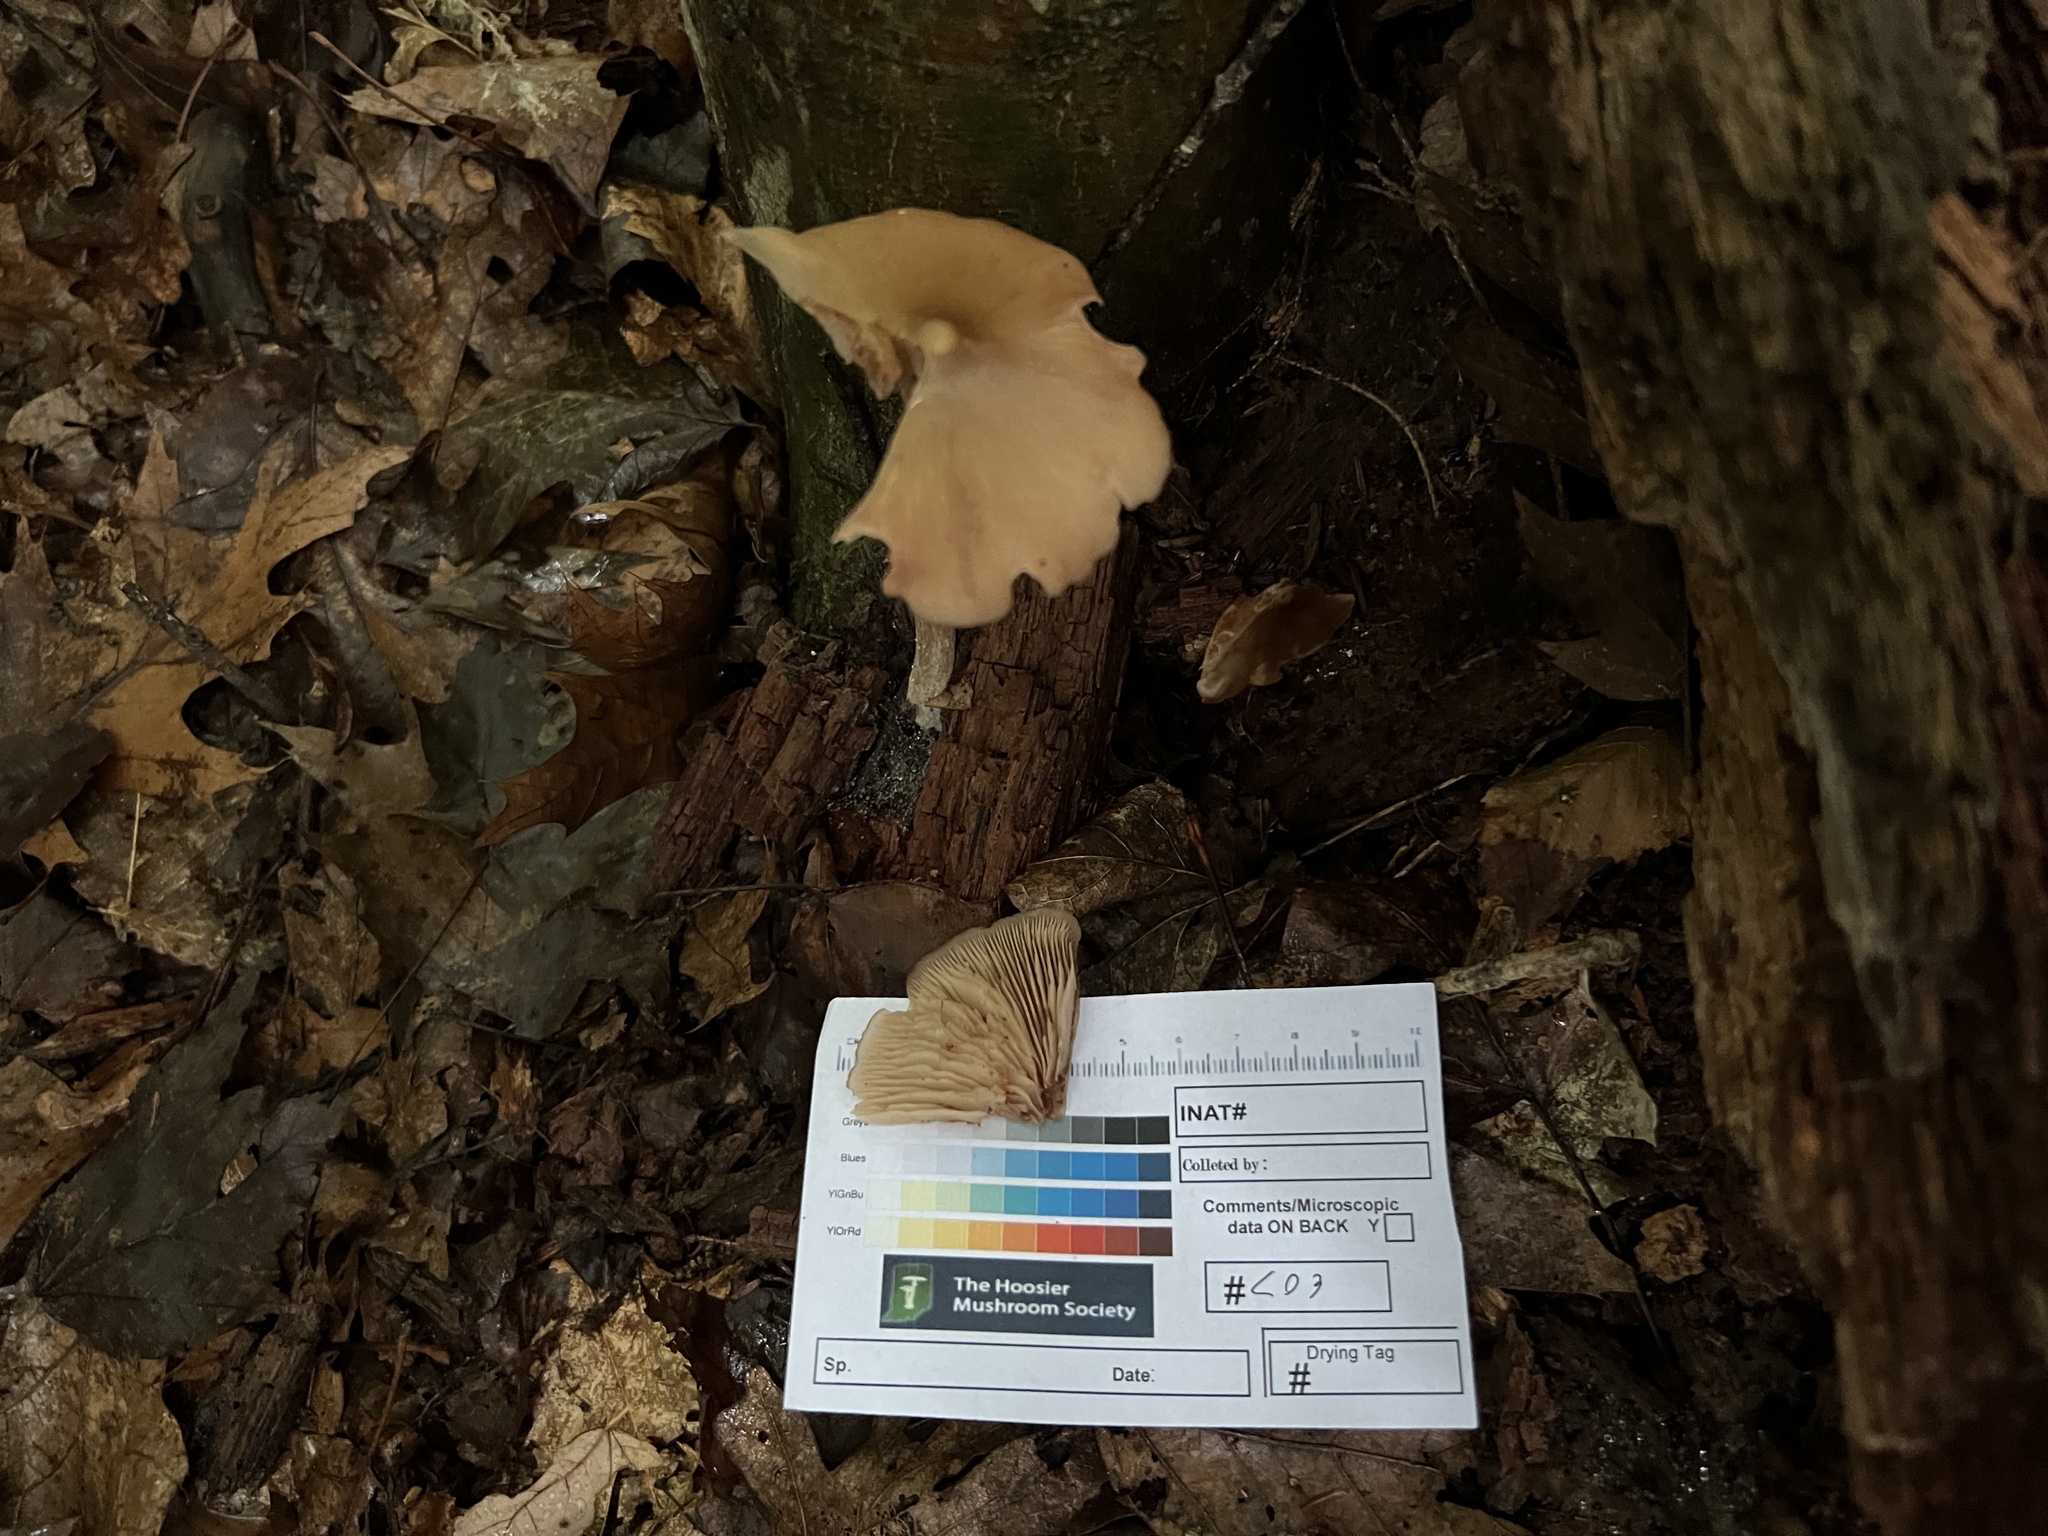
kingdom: Fungi
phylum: Basidiomycota
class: Agaricomycetes
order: Agaricales
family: Entolomataceae
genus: Entoloma
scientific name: Entoloma strictius
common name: Straight-stalked entoloma
